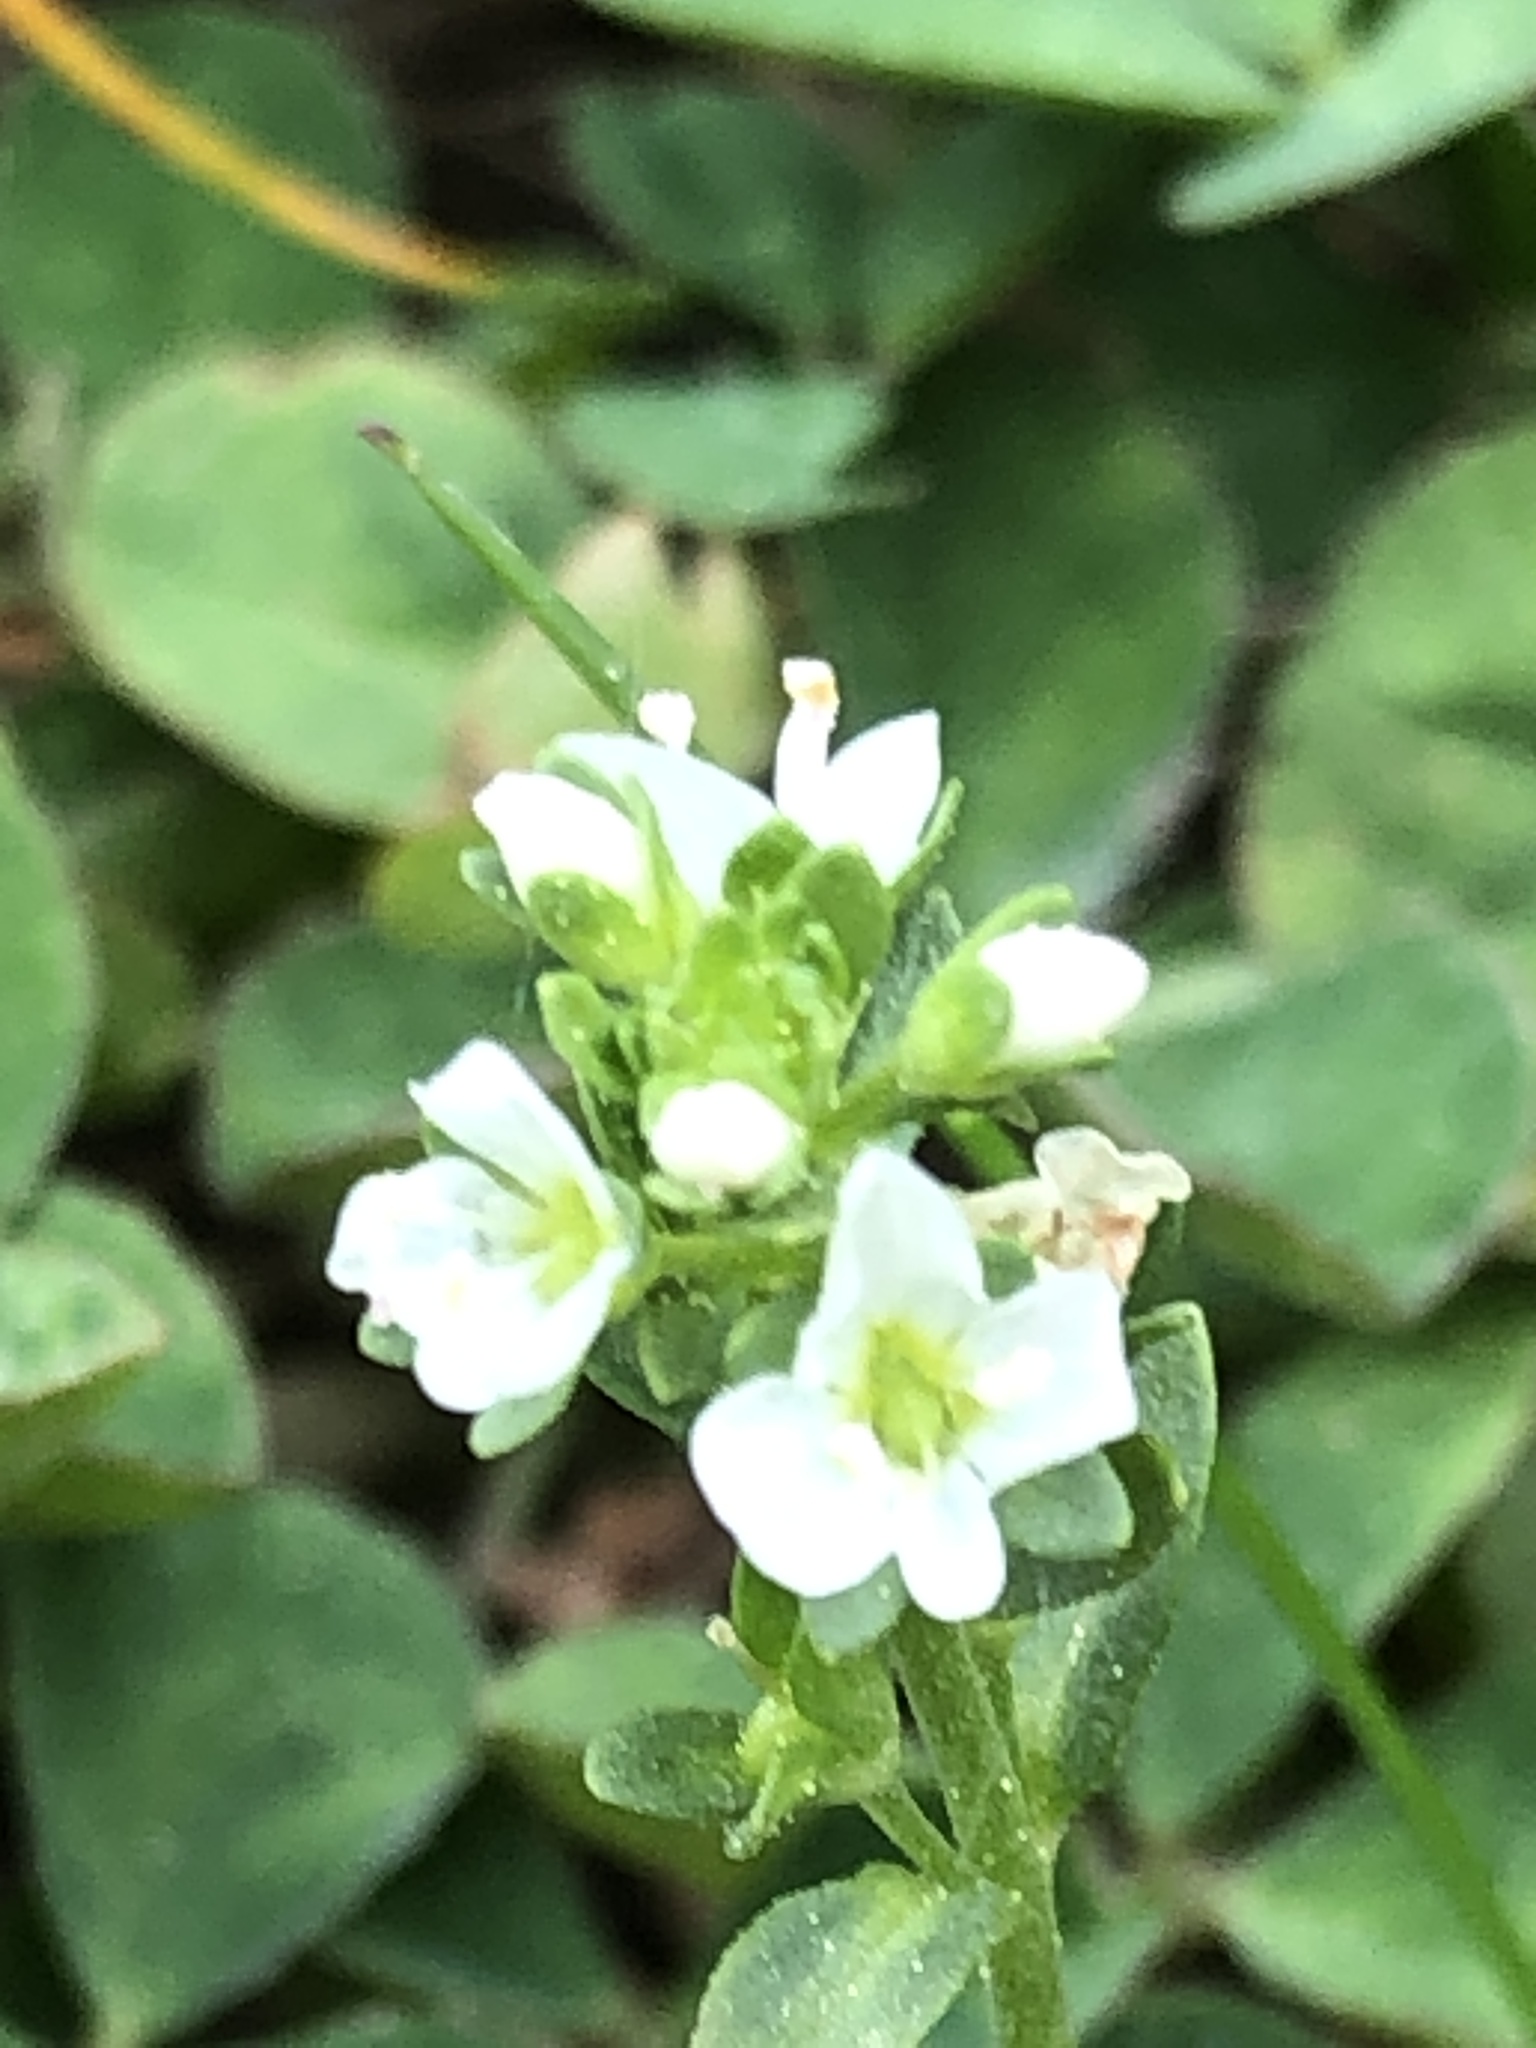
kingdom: Plantae
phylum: Tracheophyta
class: Magnoliopsida
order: Lamiales
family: Plantaginaceae
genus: Veronica
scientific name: Veronica serpyllifolia
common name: Thyme-leaved speedwell
